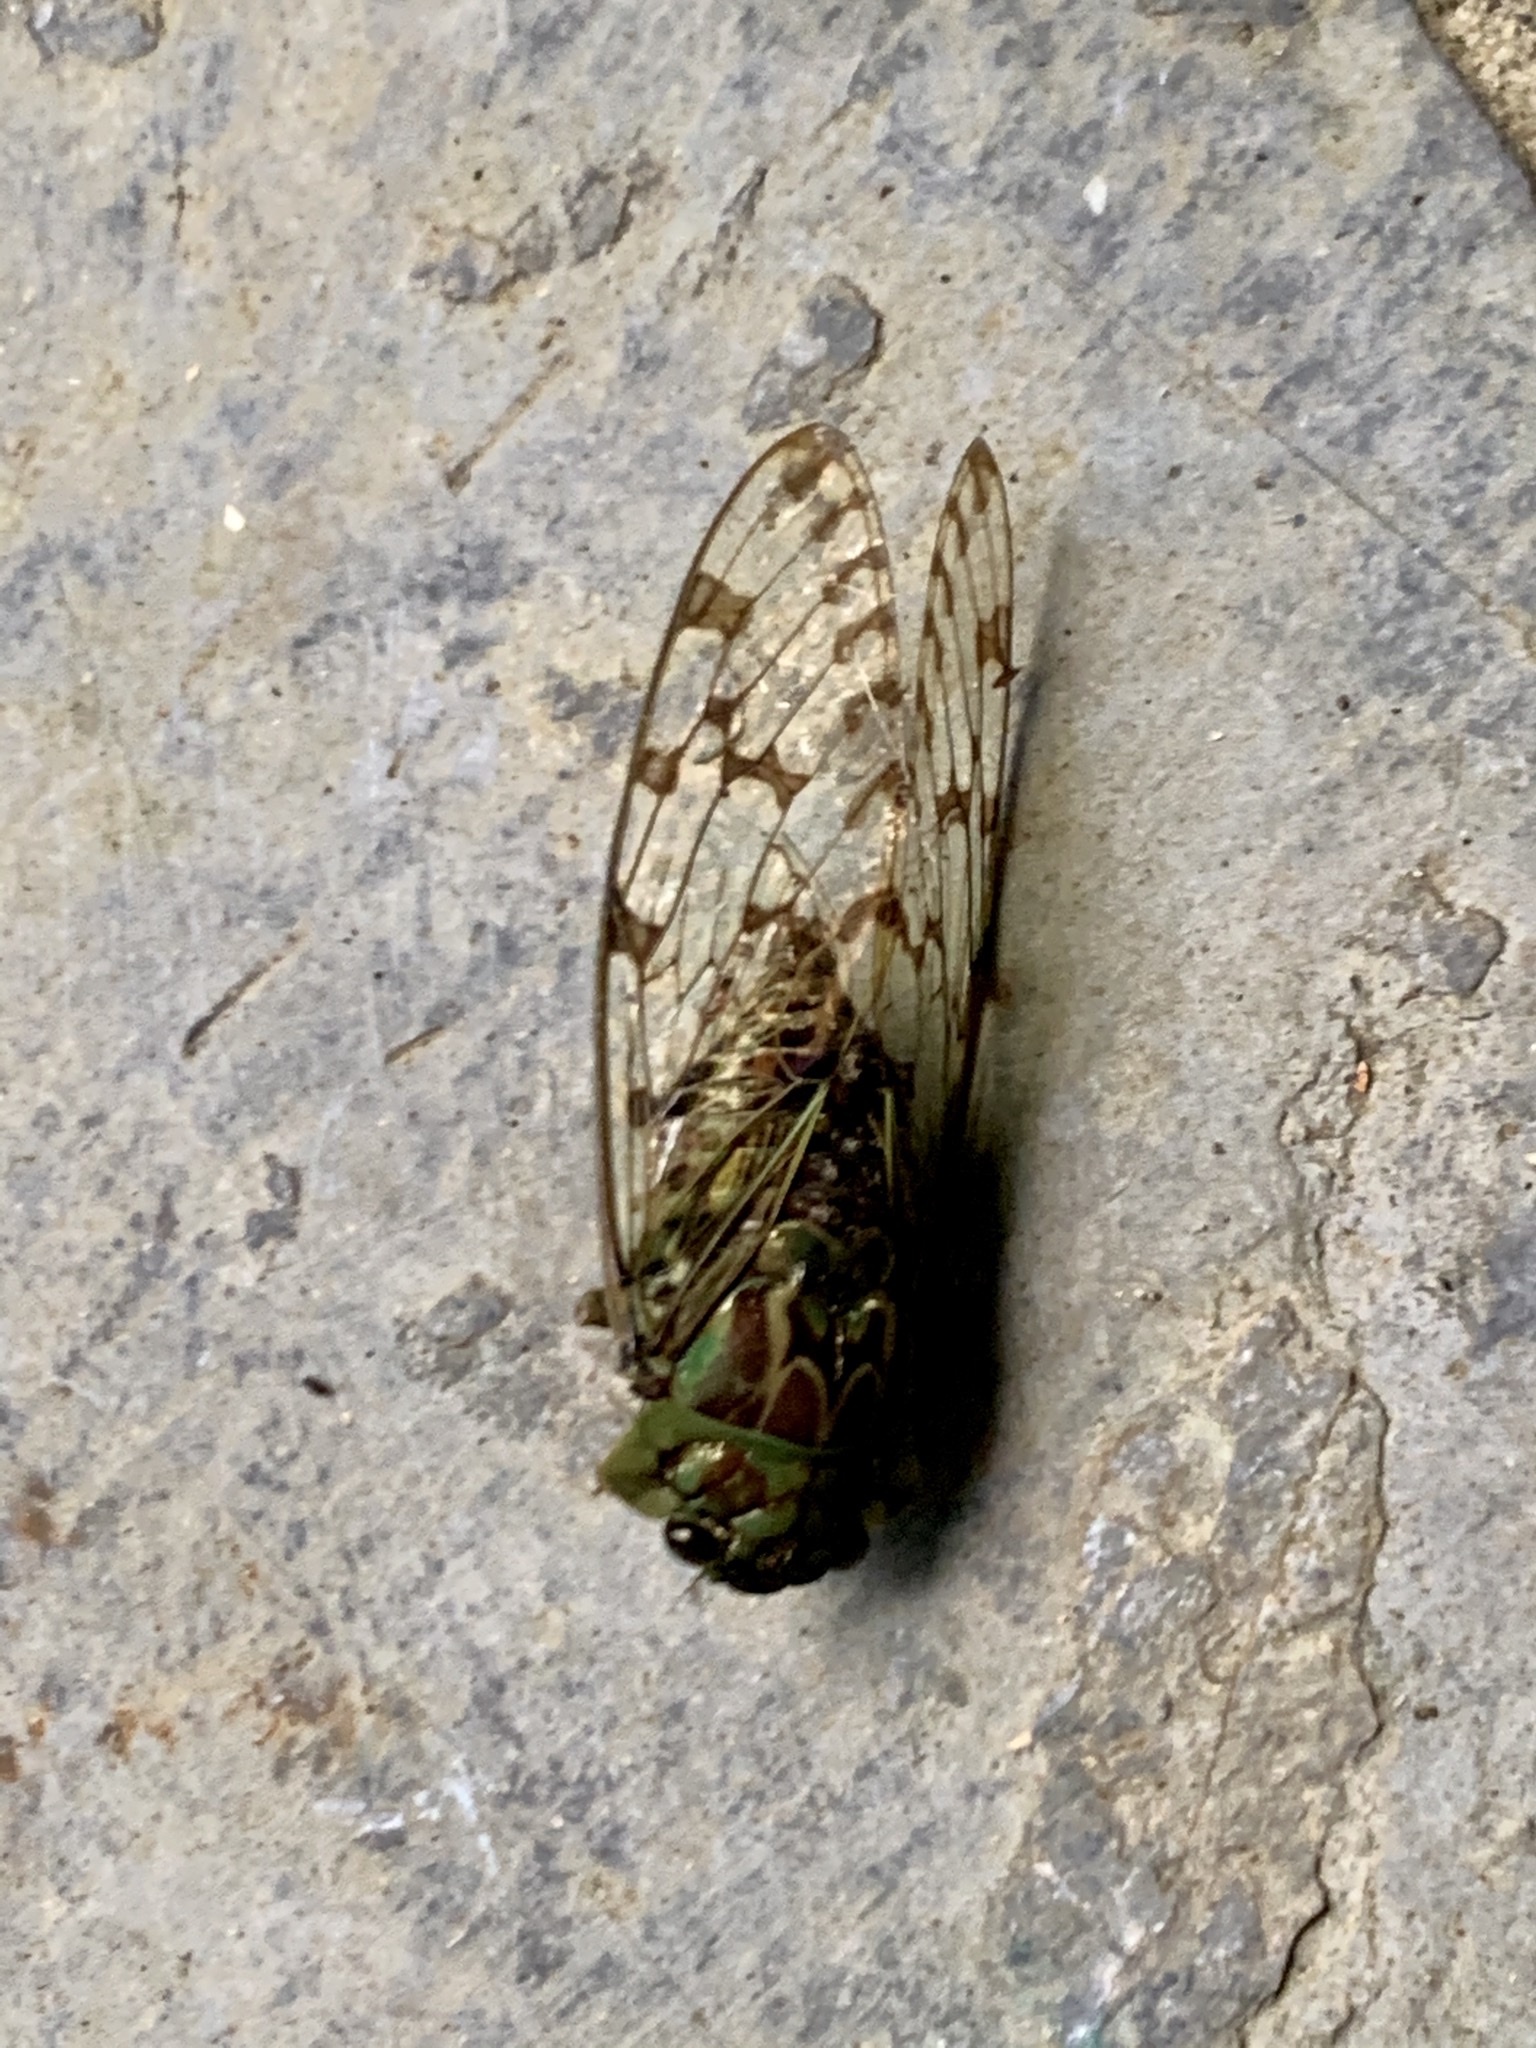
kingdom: Animalia
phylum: Arthropoda
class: Insecta
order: Hemiptera
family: Cicadidae
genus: Zammara
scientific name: Zammara nigriplaga
